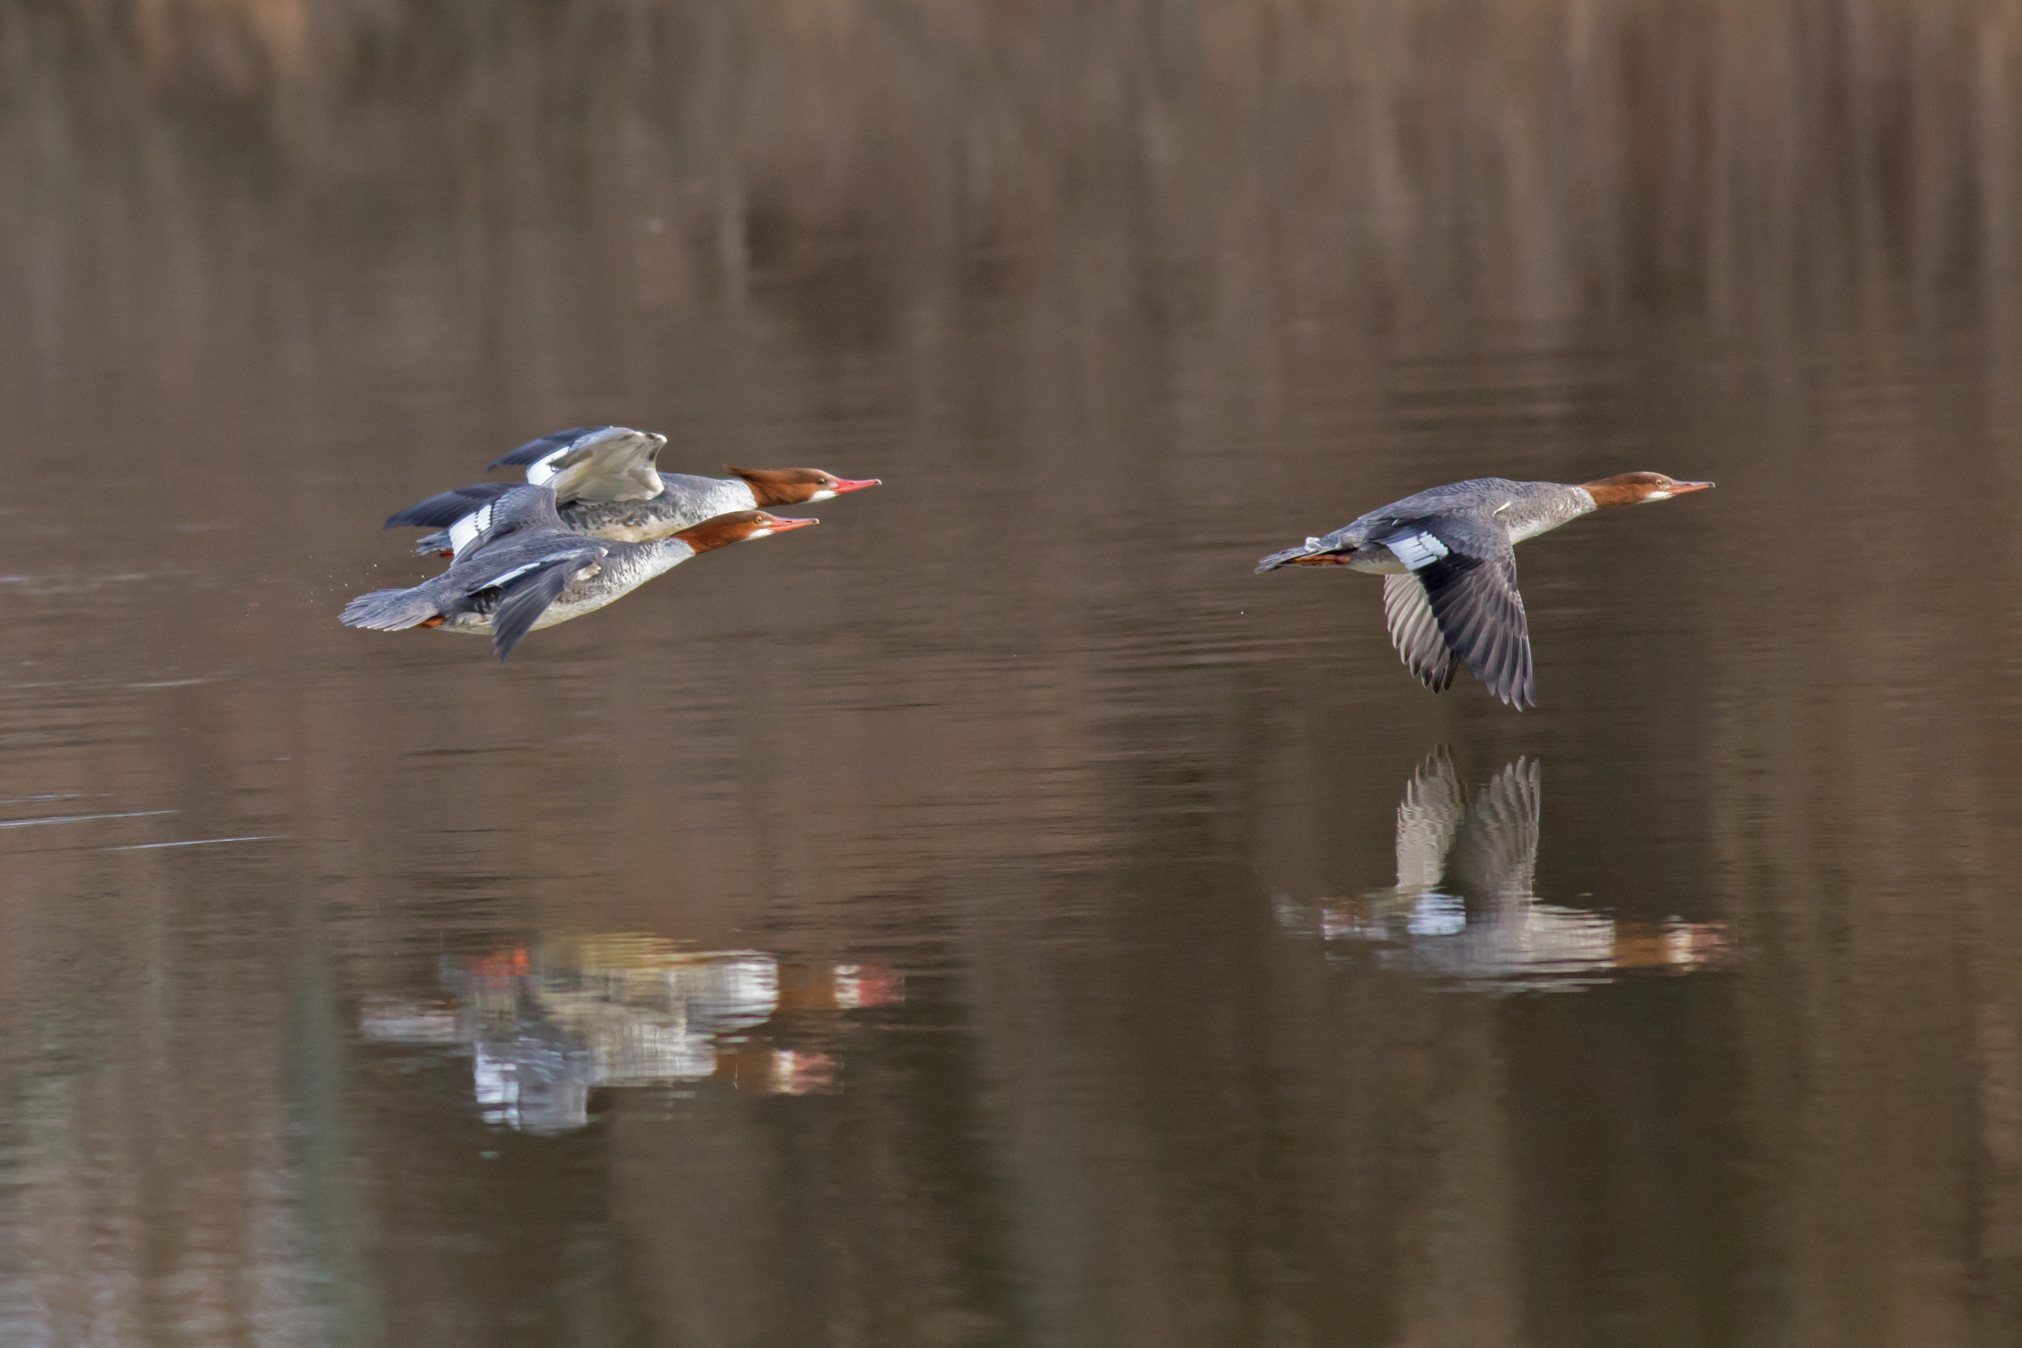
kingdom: Animalia
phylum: Chordata
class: Aves
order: Anseriformes
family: Anatidae
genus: Mergus
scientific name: Mergus merganser
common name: Common merganser
